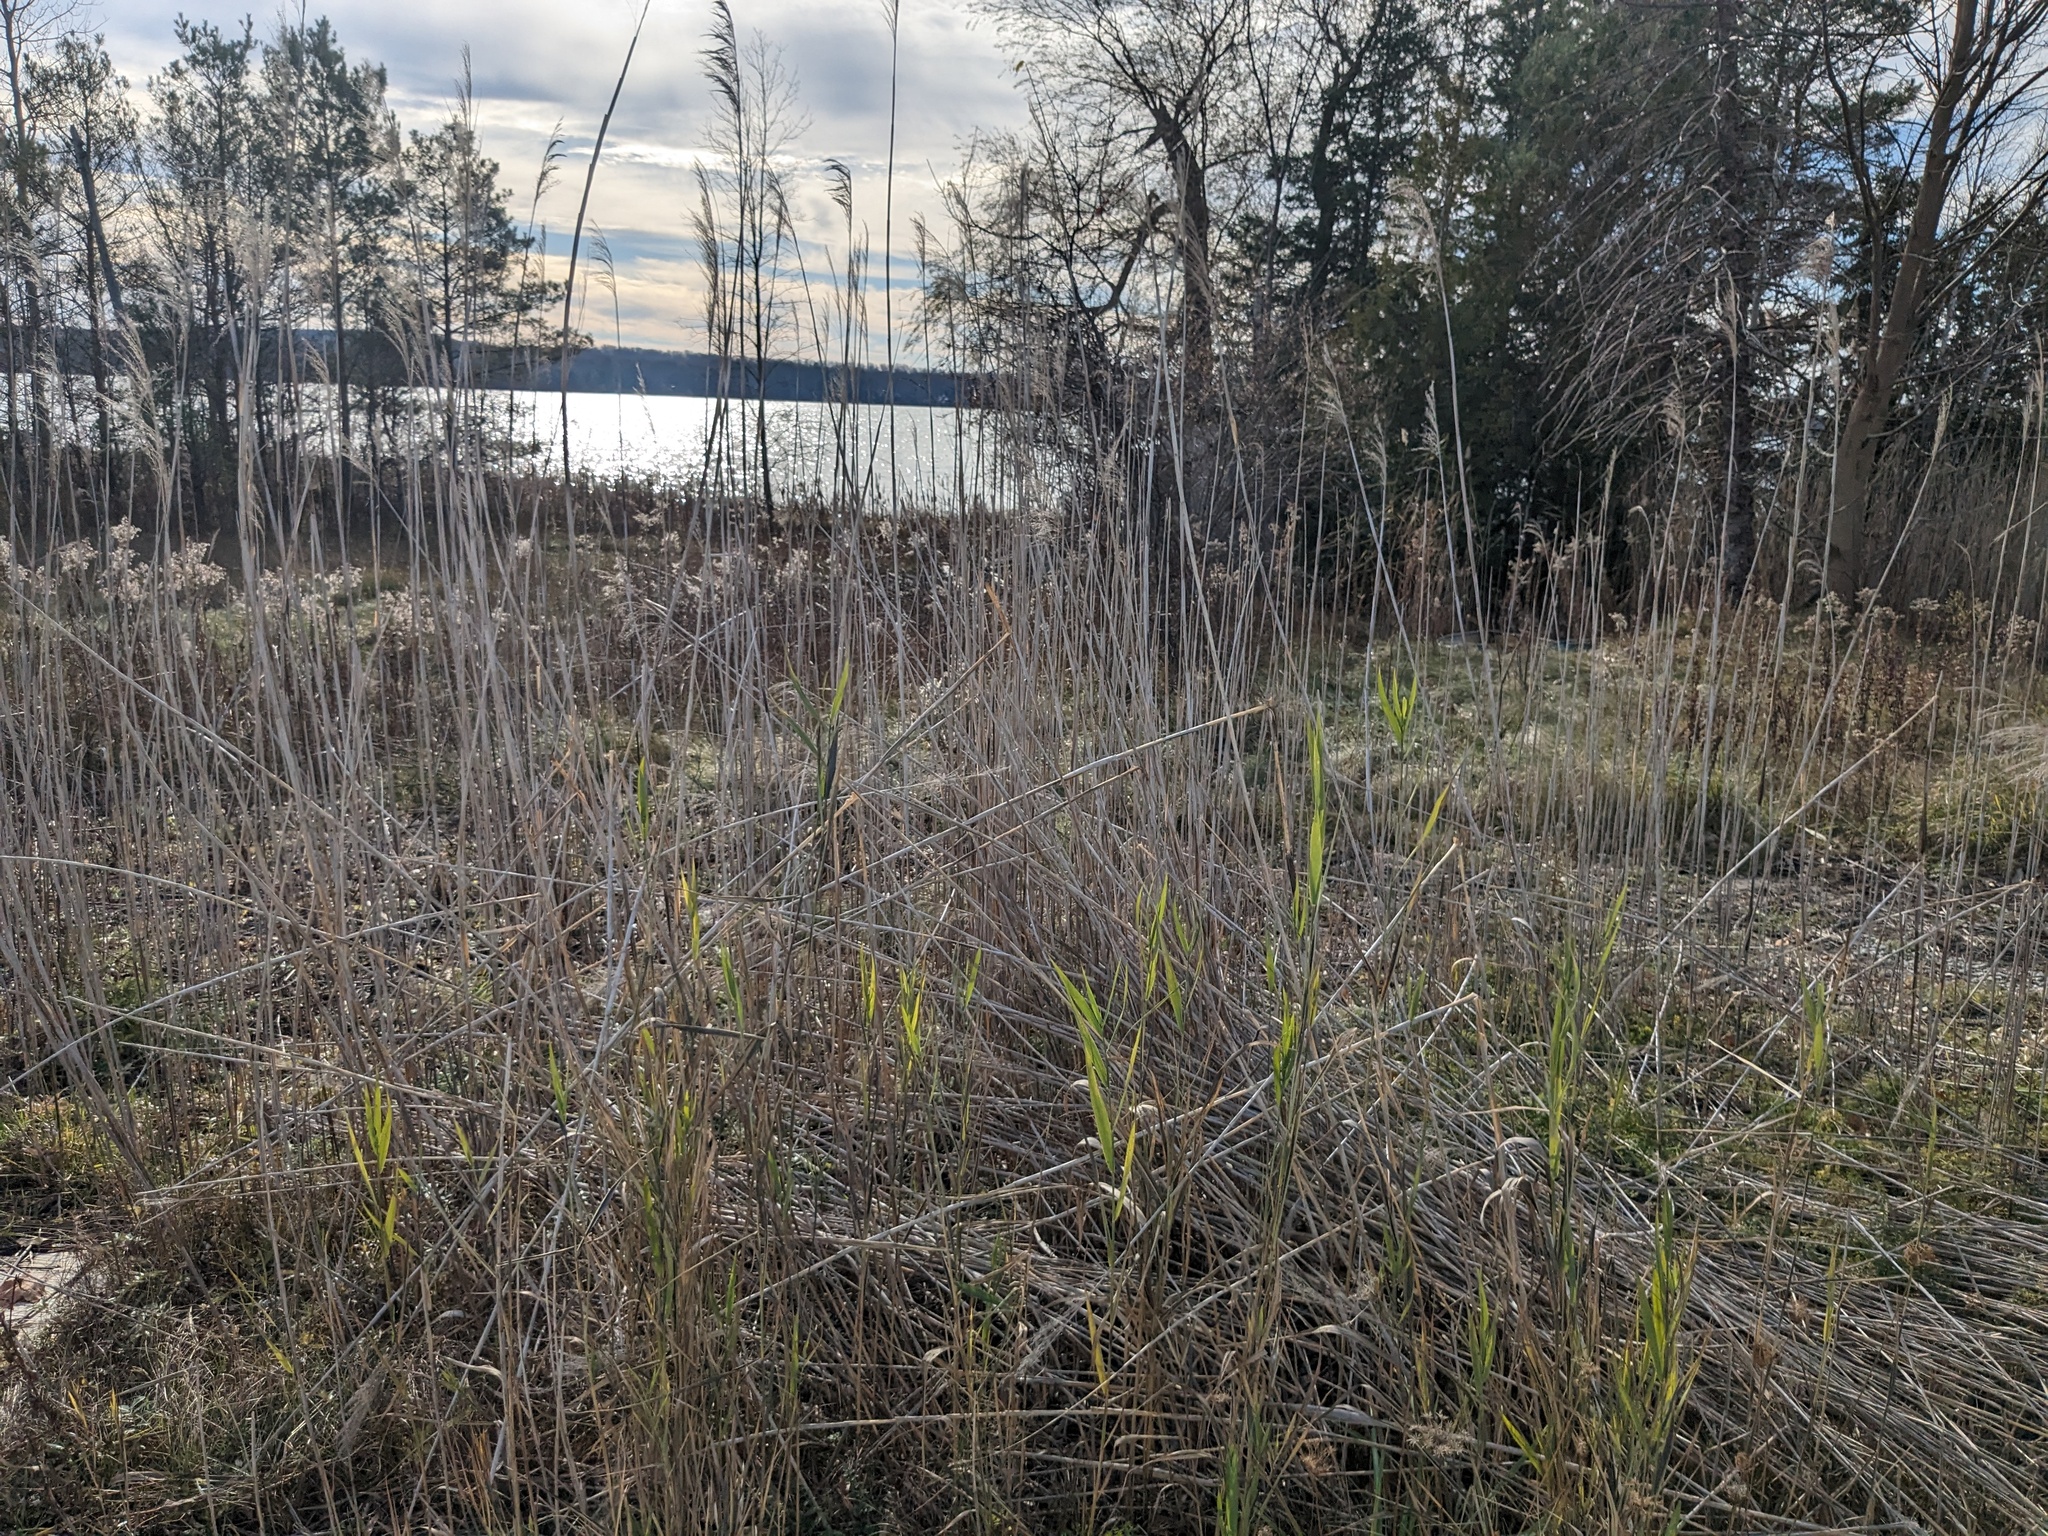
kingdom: Plantae
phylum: Tracheophyta
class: Liliopsida
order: Poales
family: Poaceae
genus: Phragmites
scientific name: Phragmites australis
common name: Common reed
